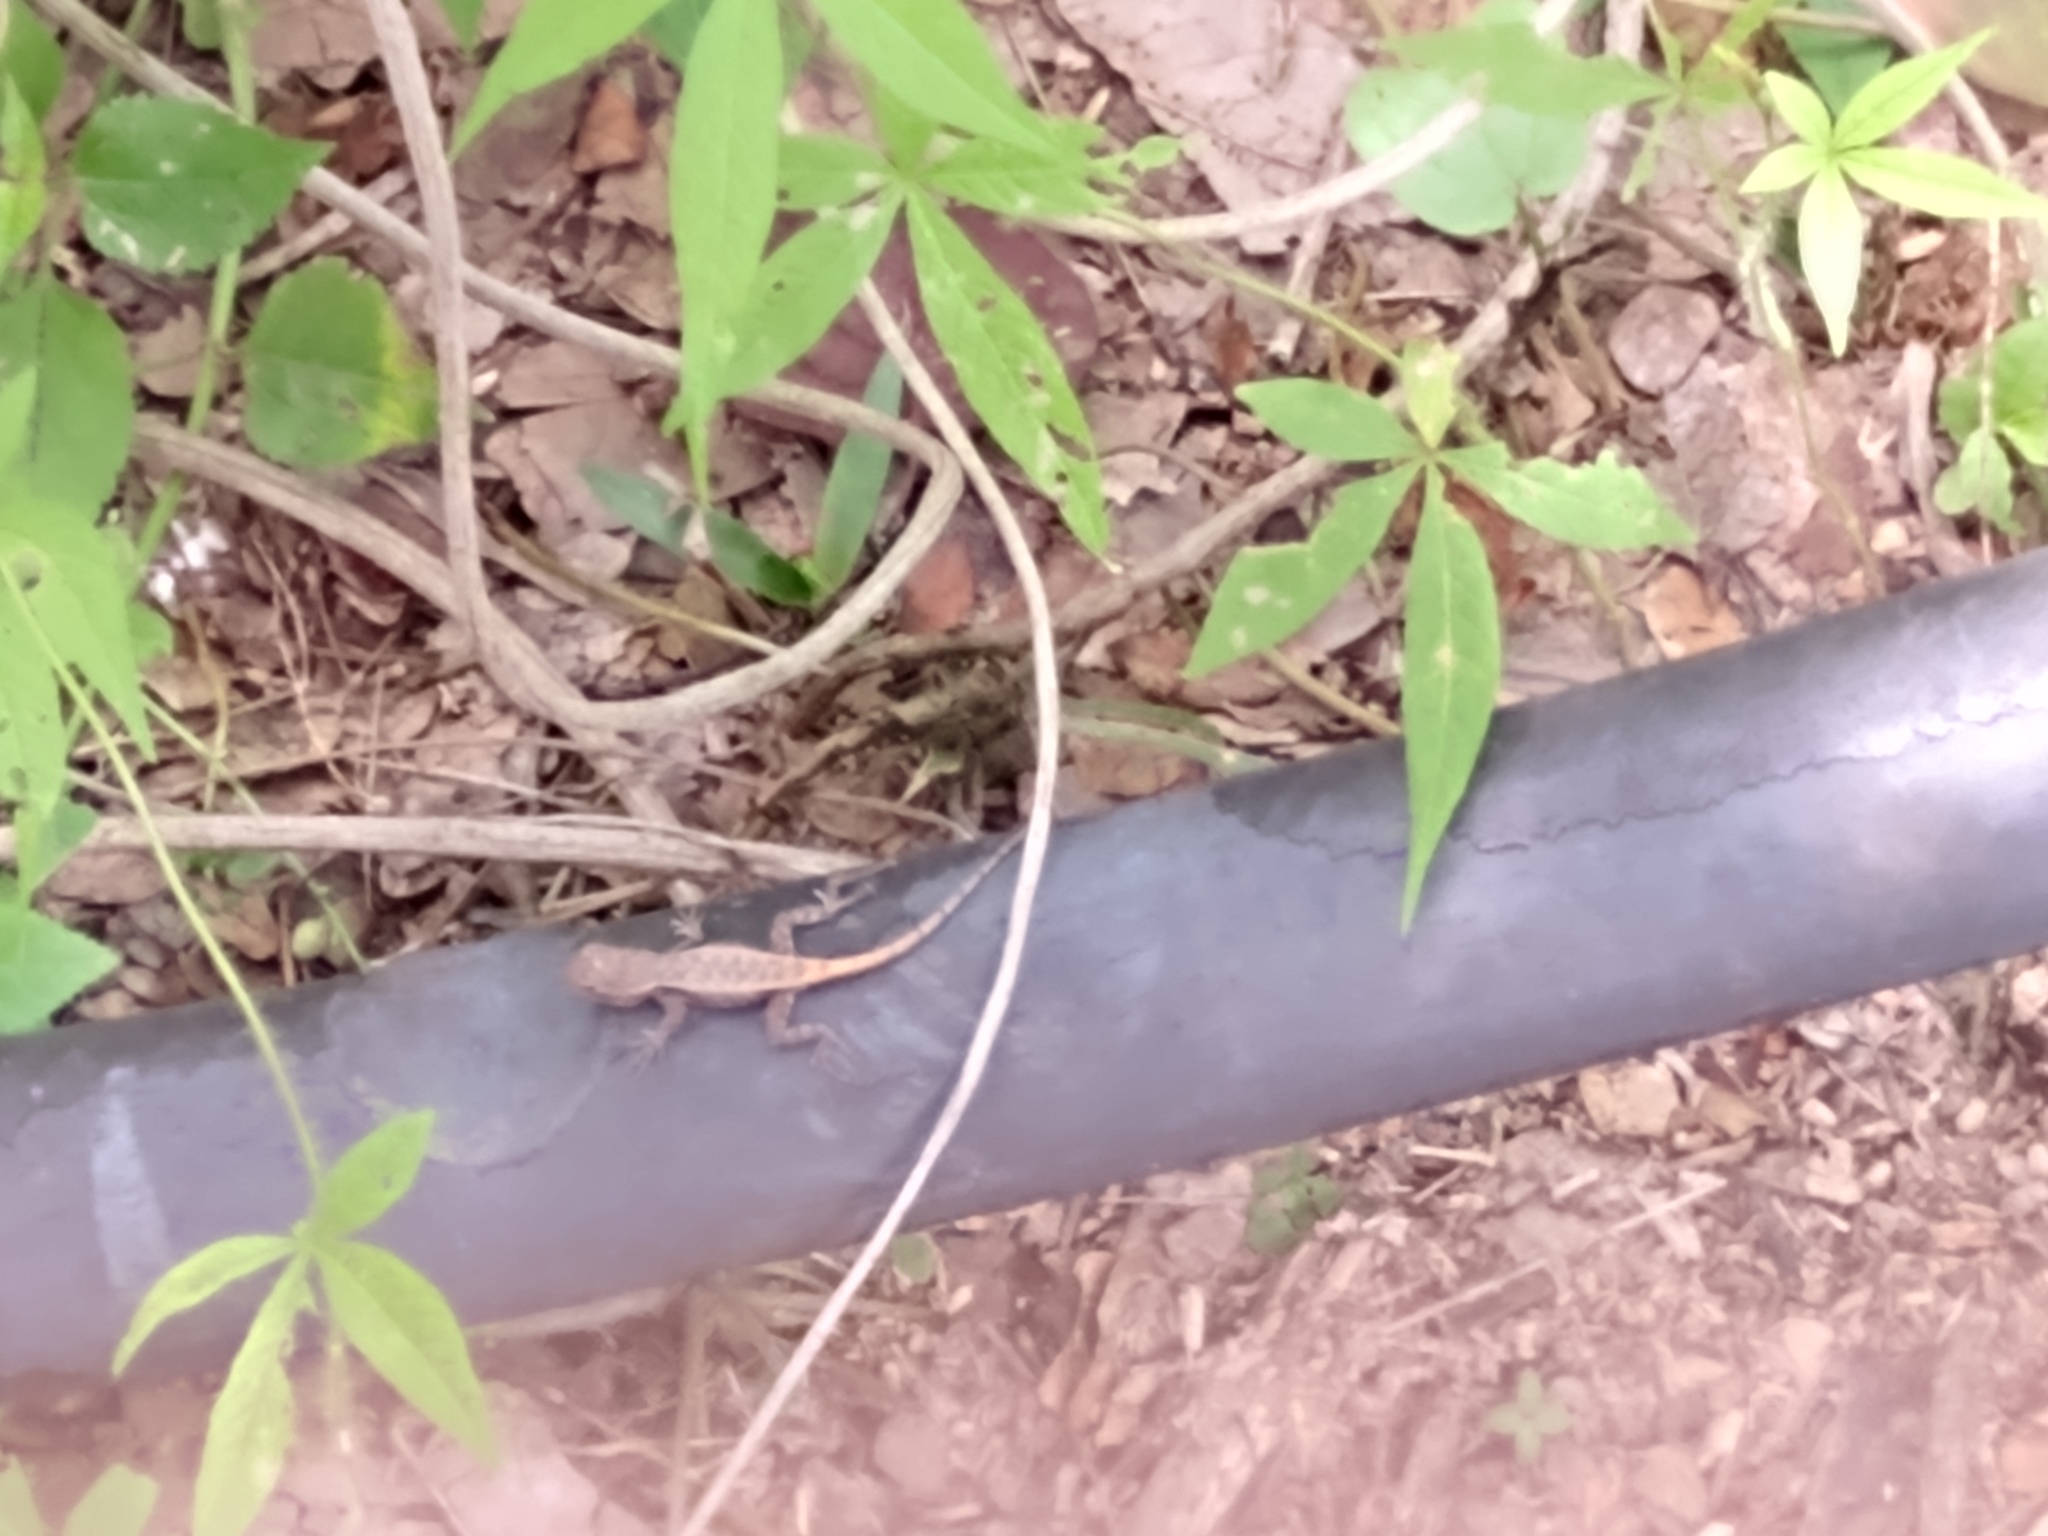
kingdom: Animalia
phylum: Chordata
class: Squamata
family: Phrynosomatidae
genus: Sceloporus
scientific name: Sceloporus chrysostictus
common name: Yellow-spotted spiny lizard
